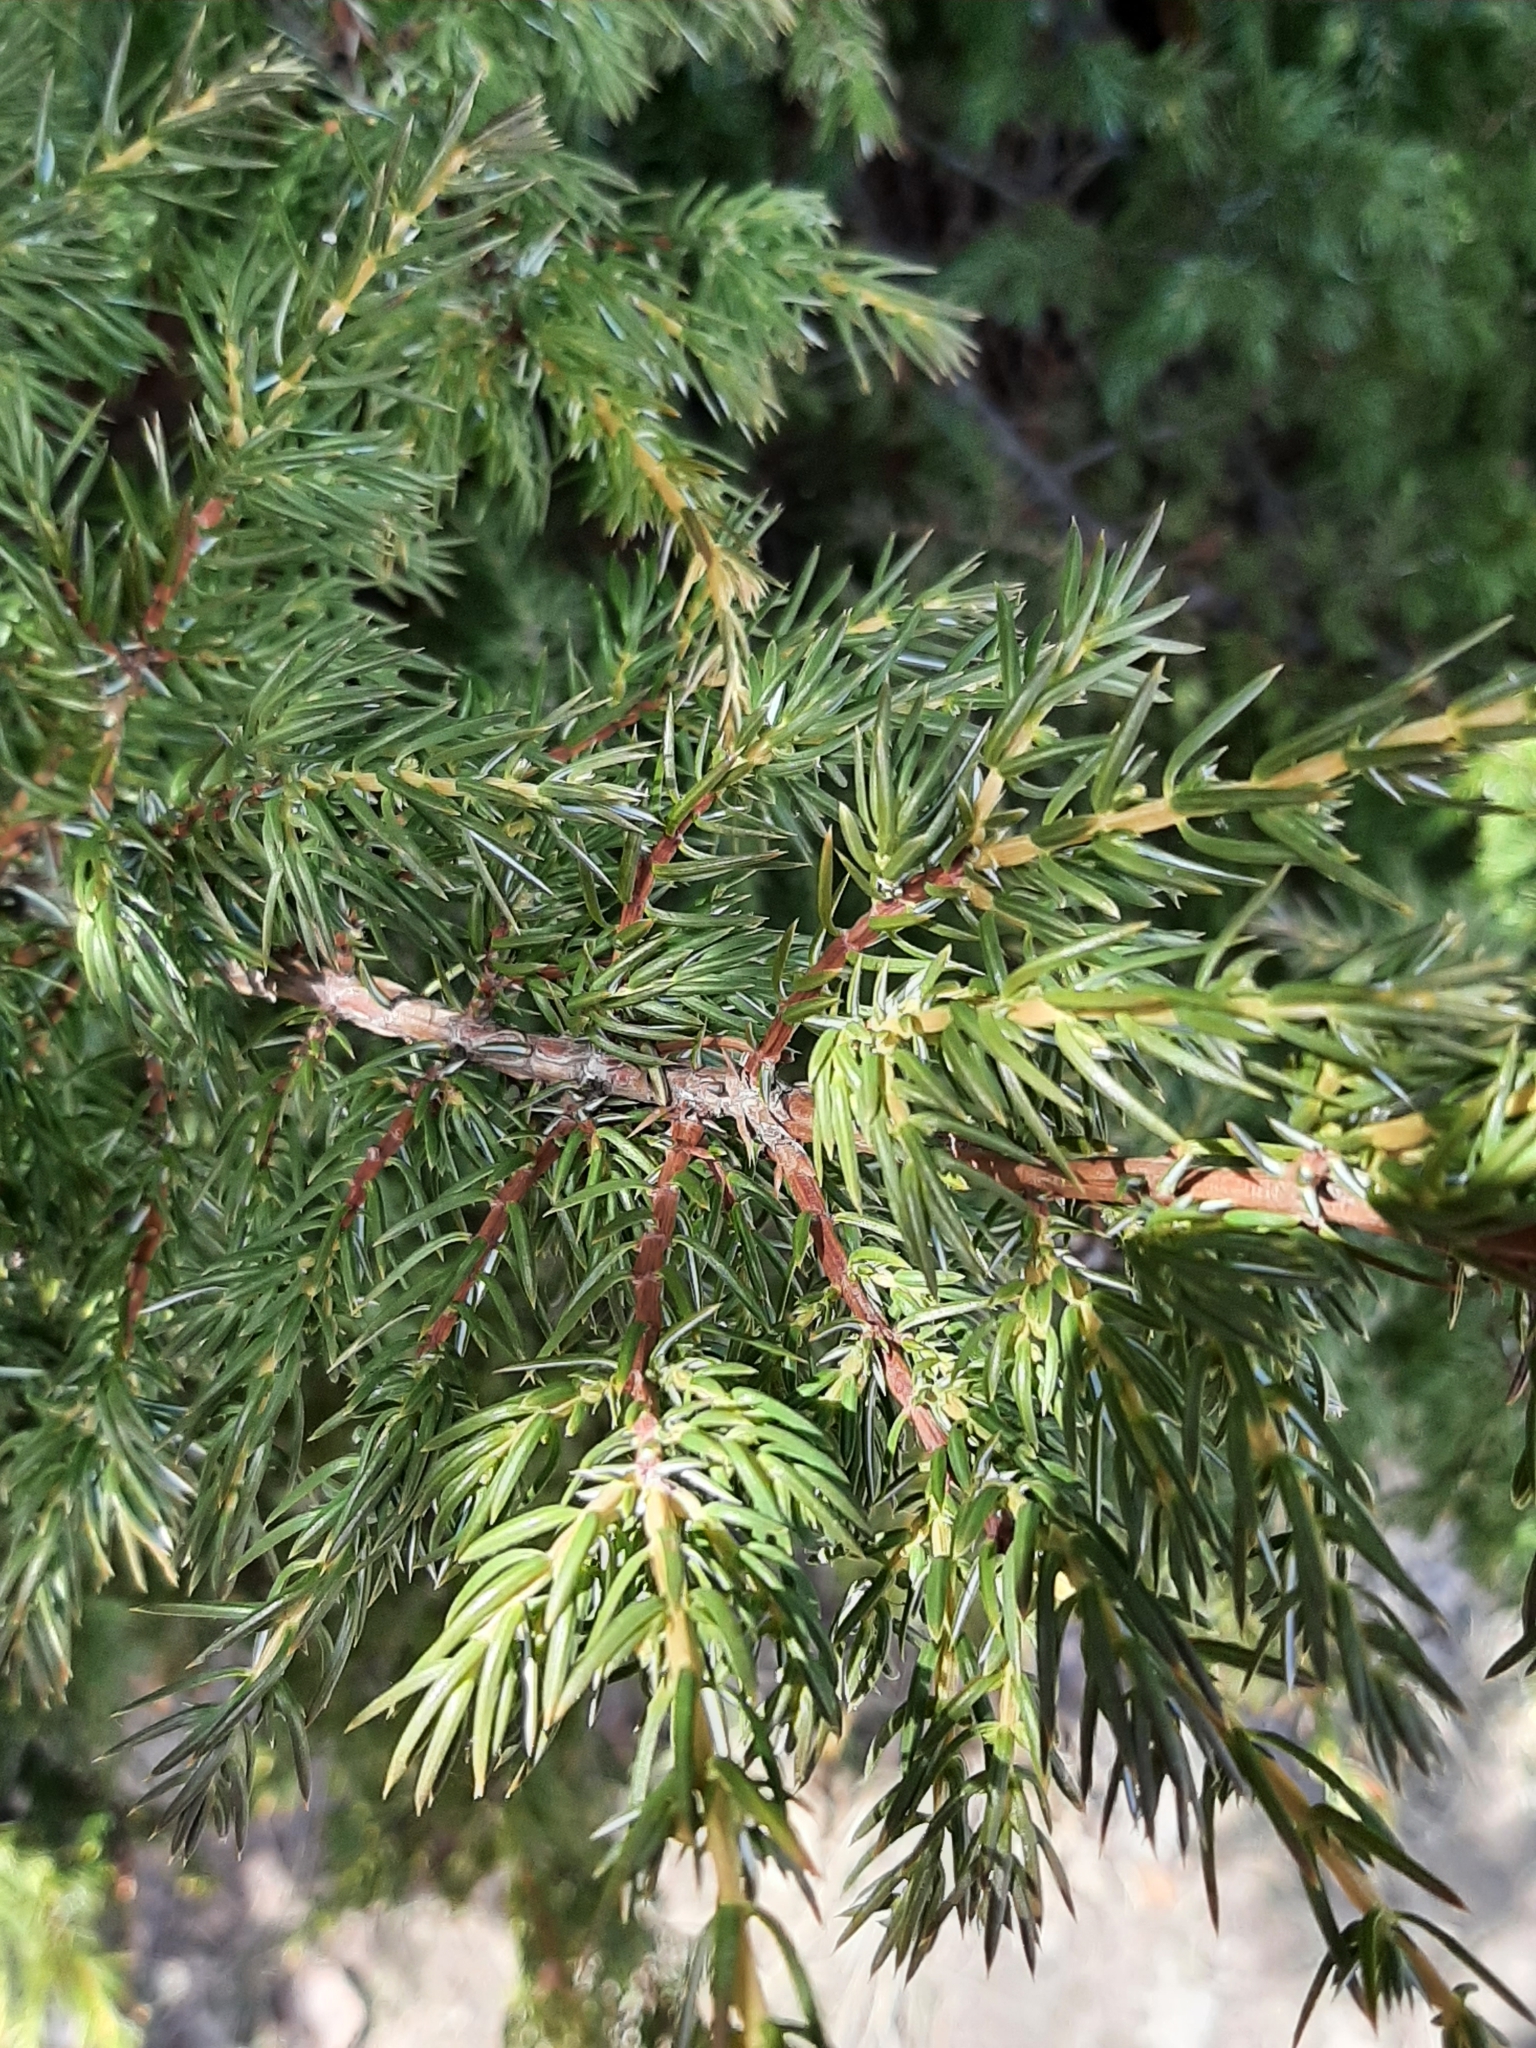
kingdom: Plantae
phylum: Tracheophyta
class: Pinopsida
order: Pinales
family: Cupressaceae
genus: Juniperus
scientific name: Juniperus communis
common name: Common juniper
